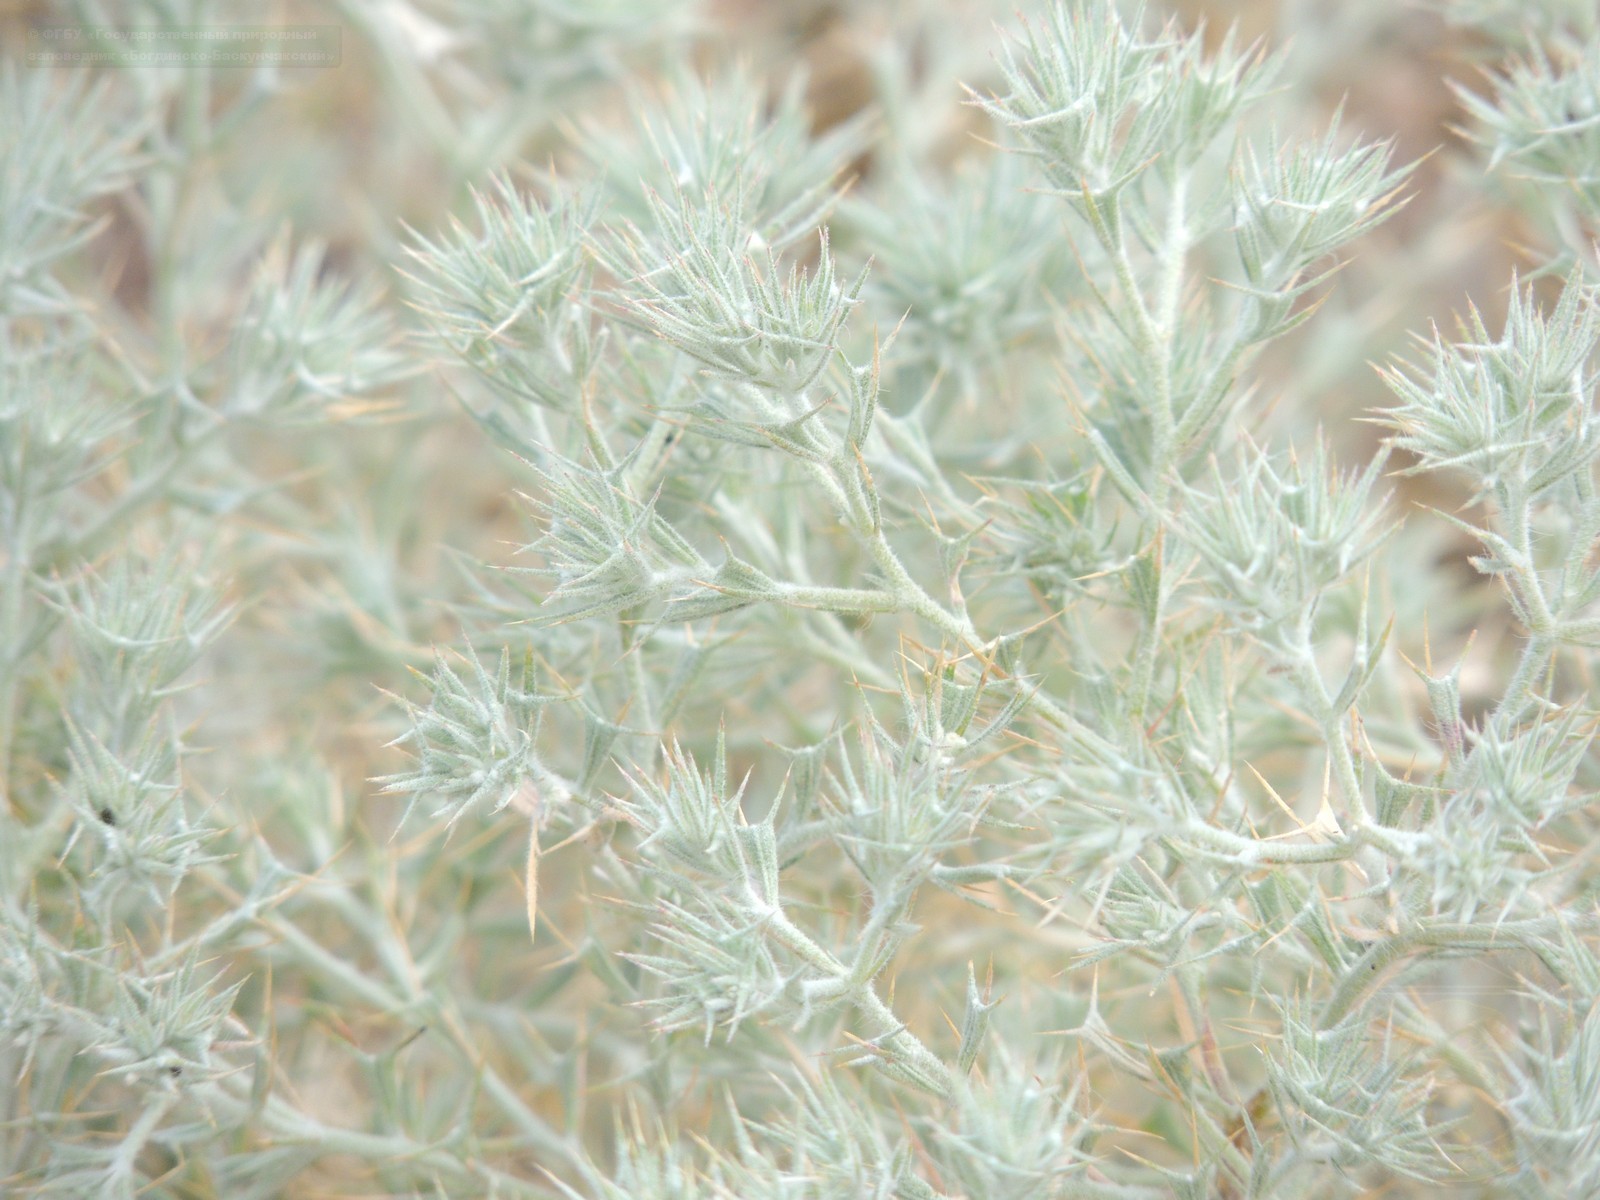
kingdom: Plantae
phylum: Tracheophyta
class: Magnoliopsida
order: Caryophyllales
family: Amaranthaceae
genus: Ceratocarpus
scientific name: Ceratocarpus arenarius
